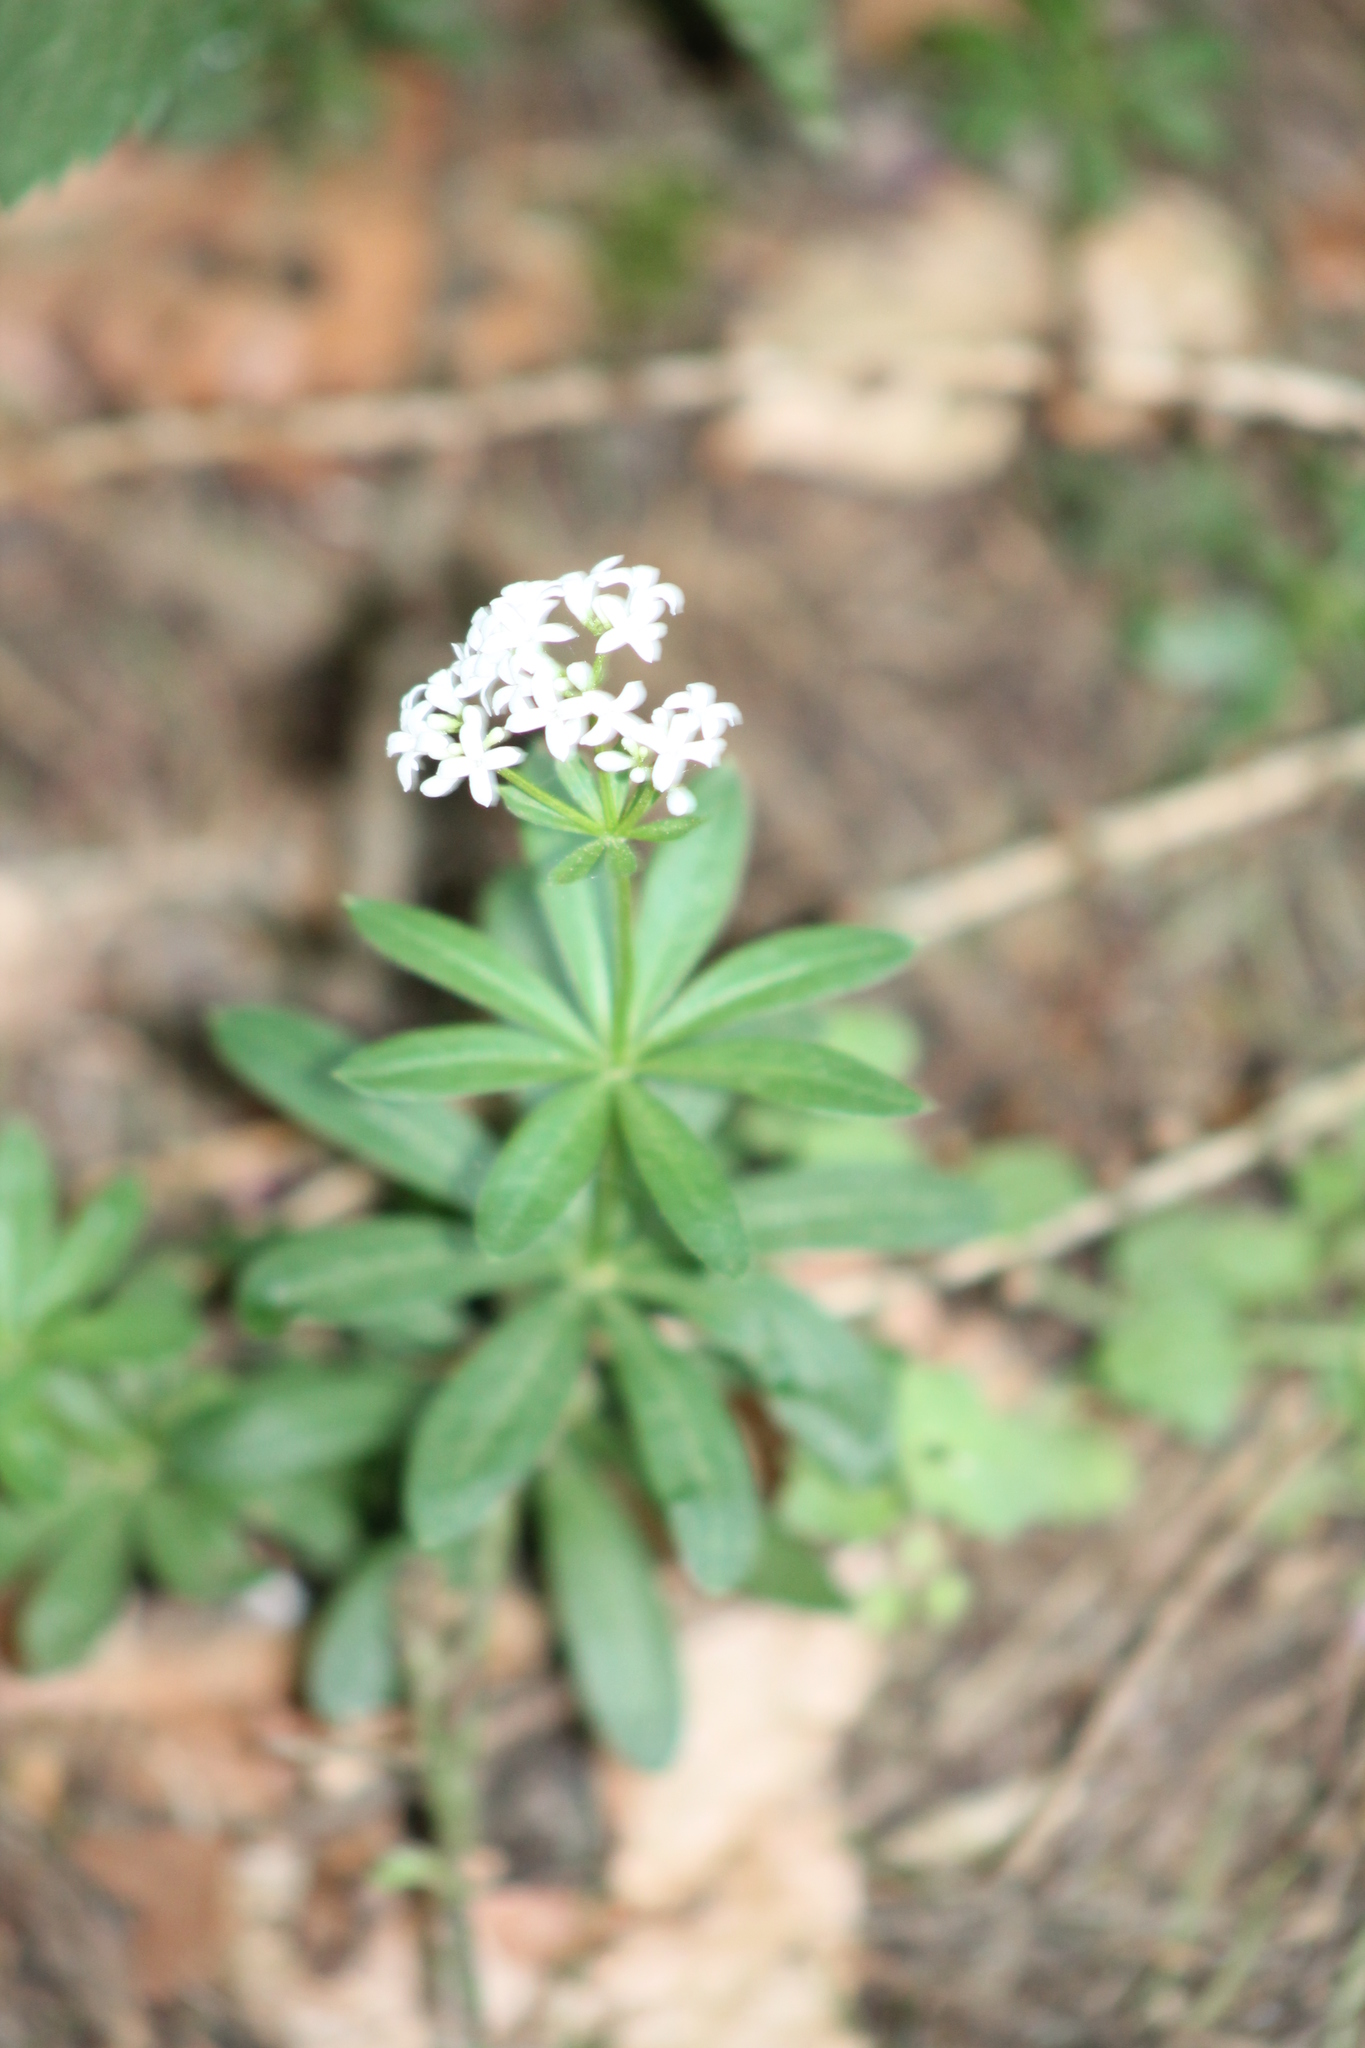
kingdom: Plantae
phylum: Tracheophyta
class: Magnoliopsida
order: Gentianales
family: Rubiaceae
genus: Galium
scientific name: Galium odoratum
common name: Sweet woodruff
